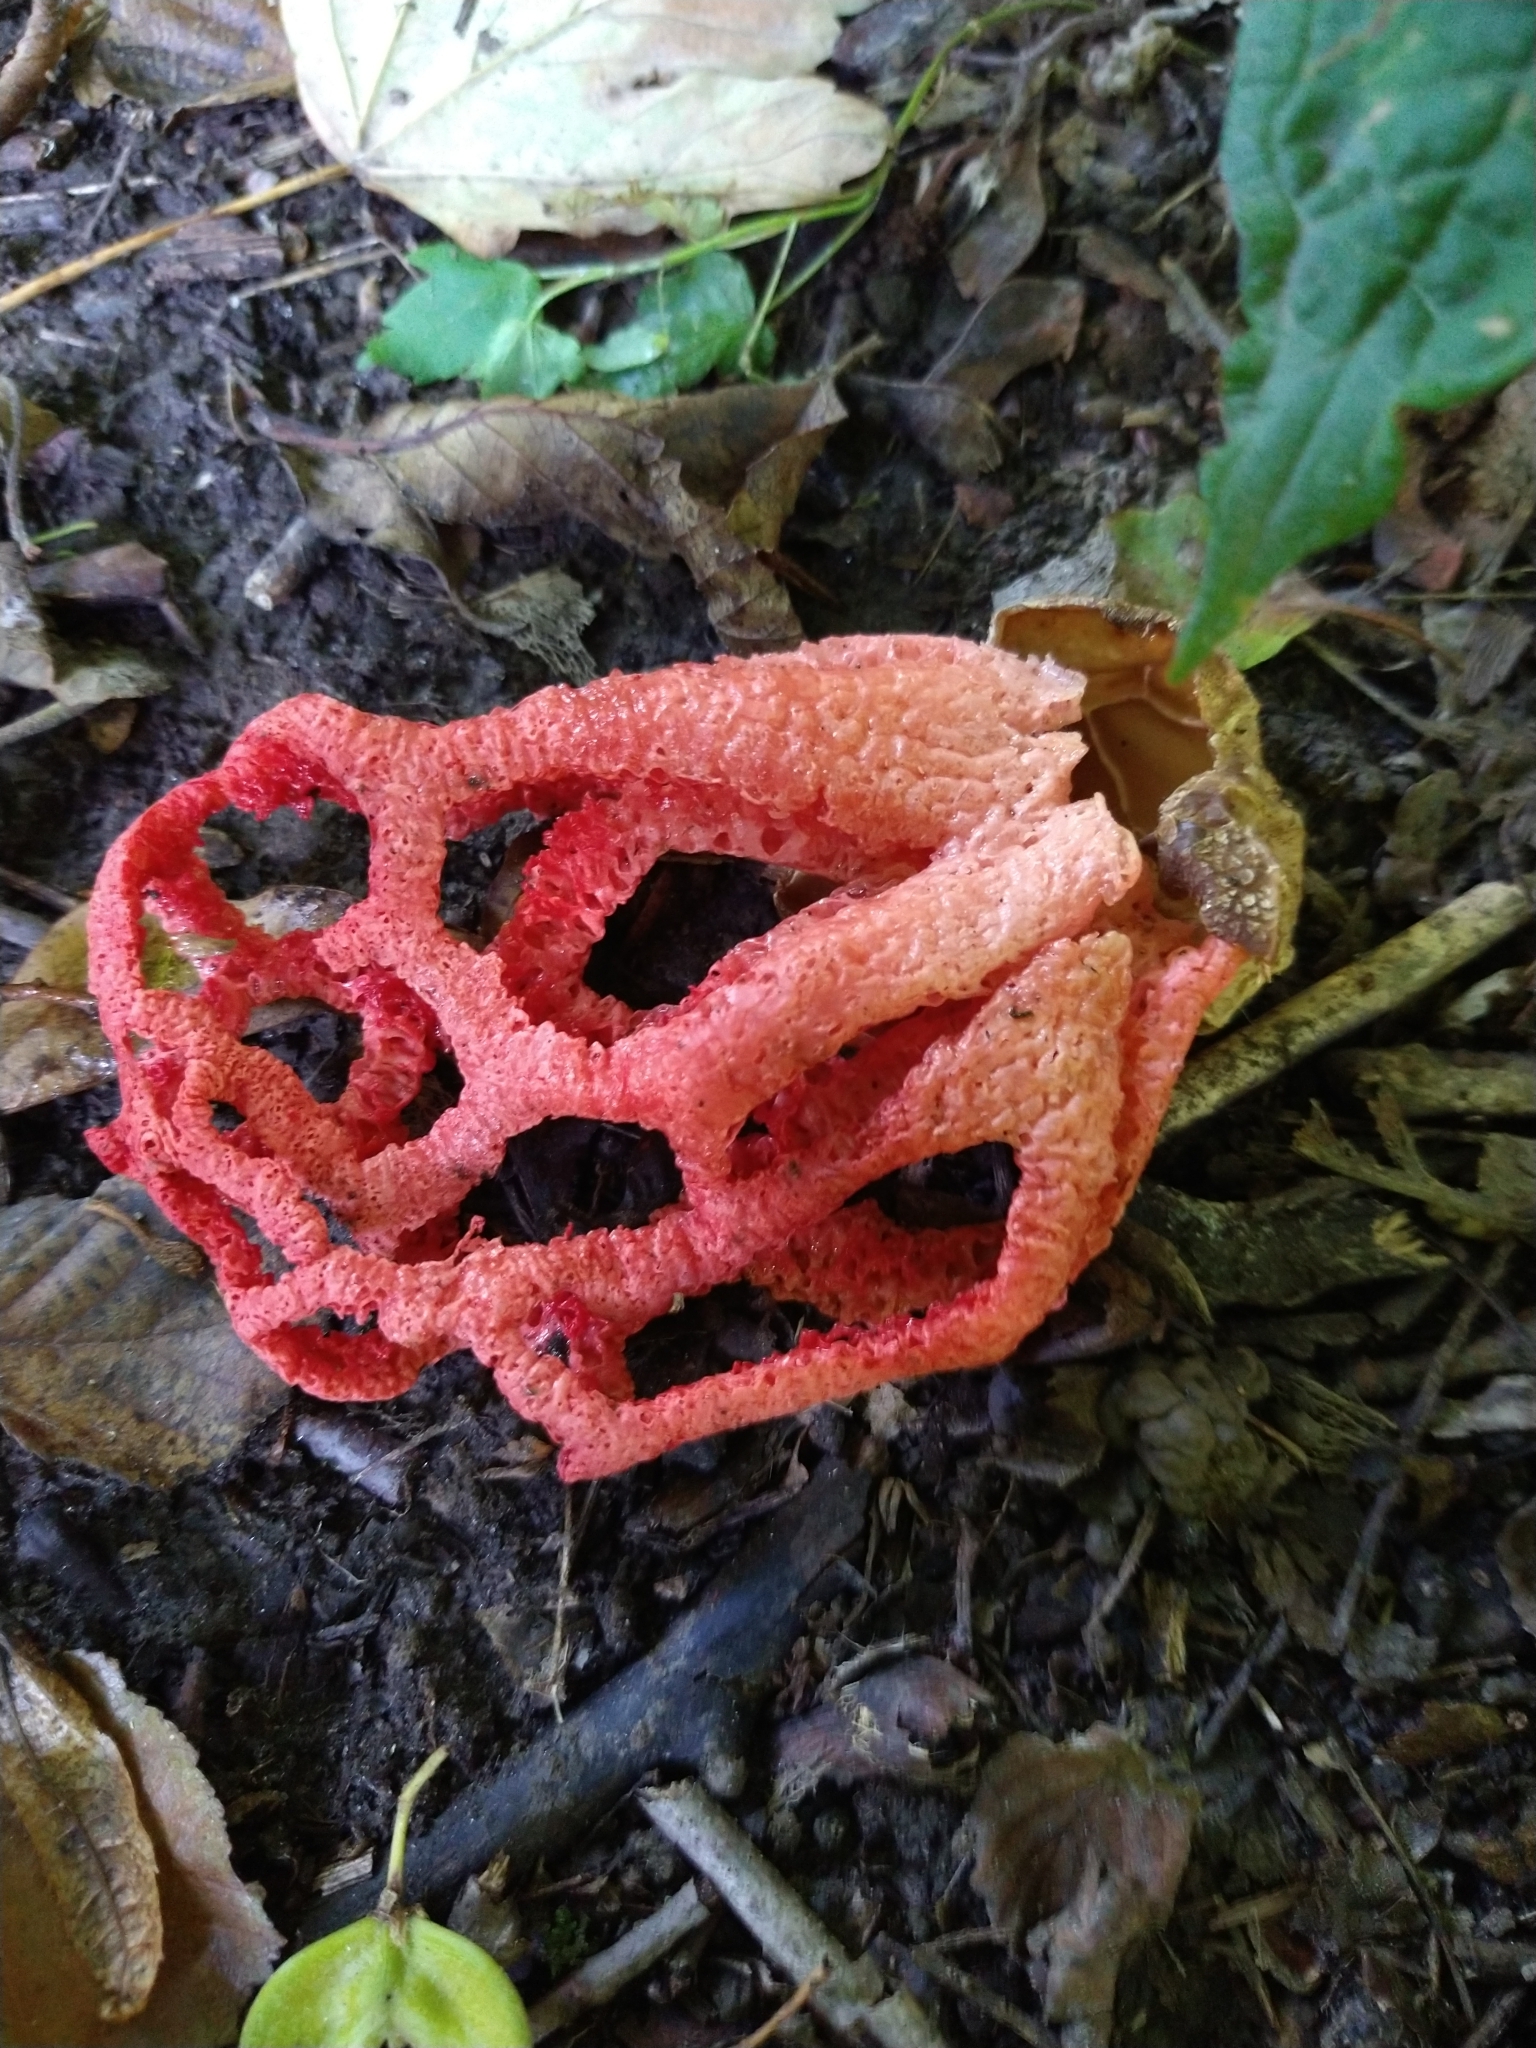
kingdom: Fungi
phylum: Basidiomycota
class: Agaricomycetes
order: Phallales
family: Phallaceae
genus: Clathrus
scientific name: Clathrus ruber
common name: Red cage
